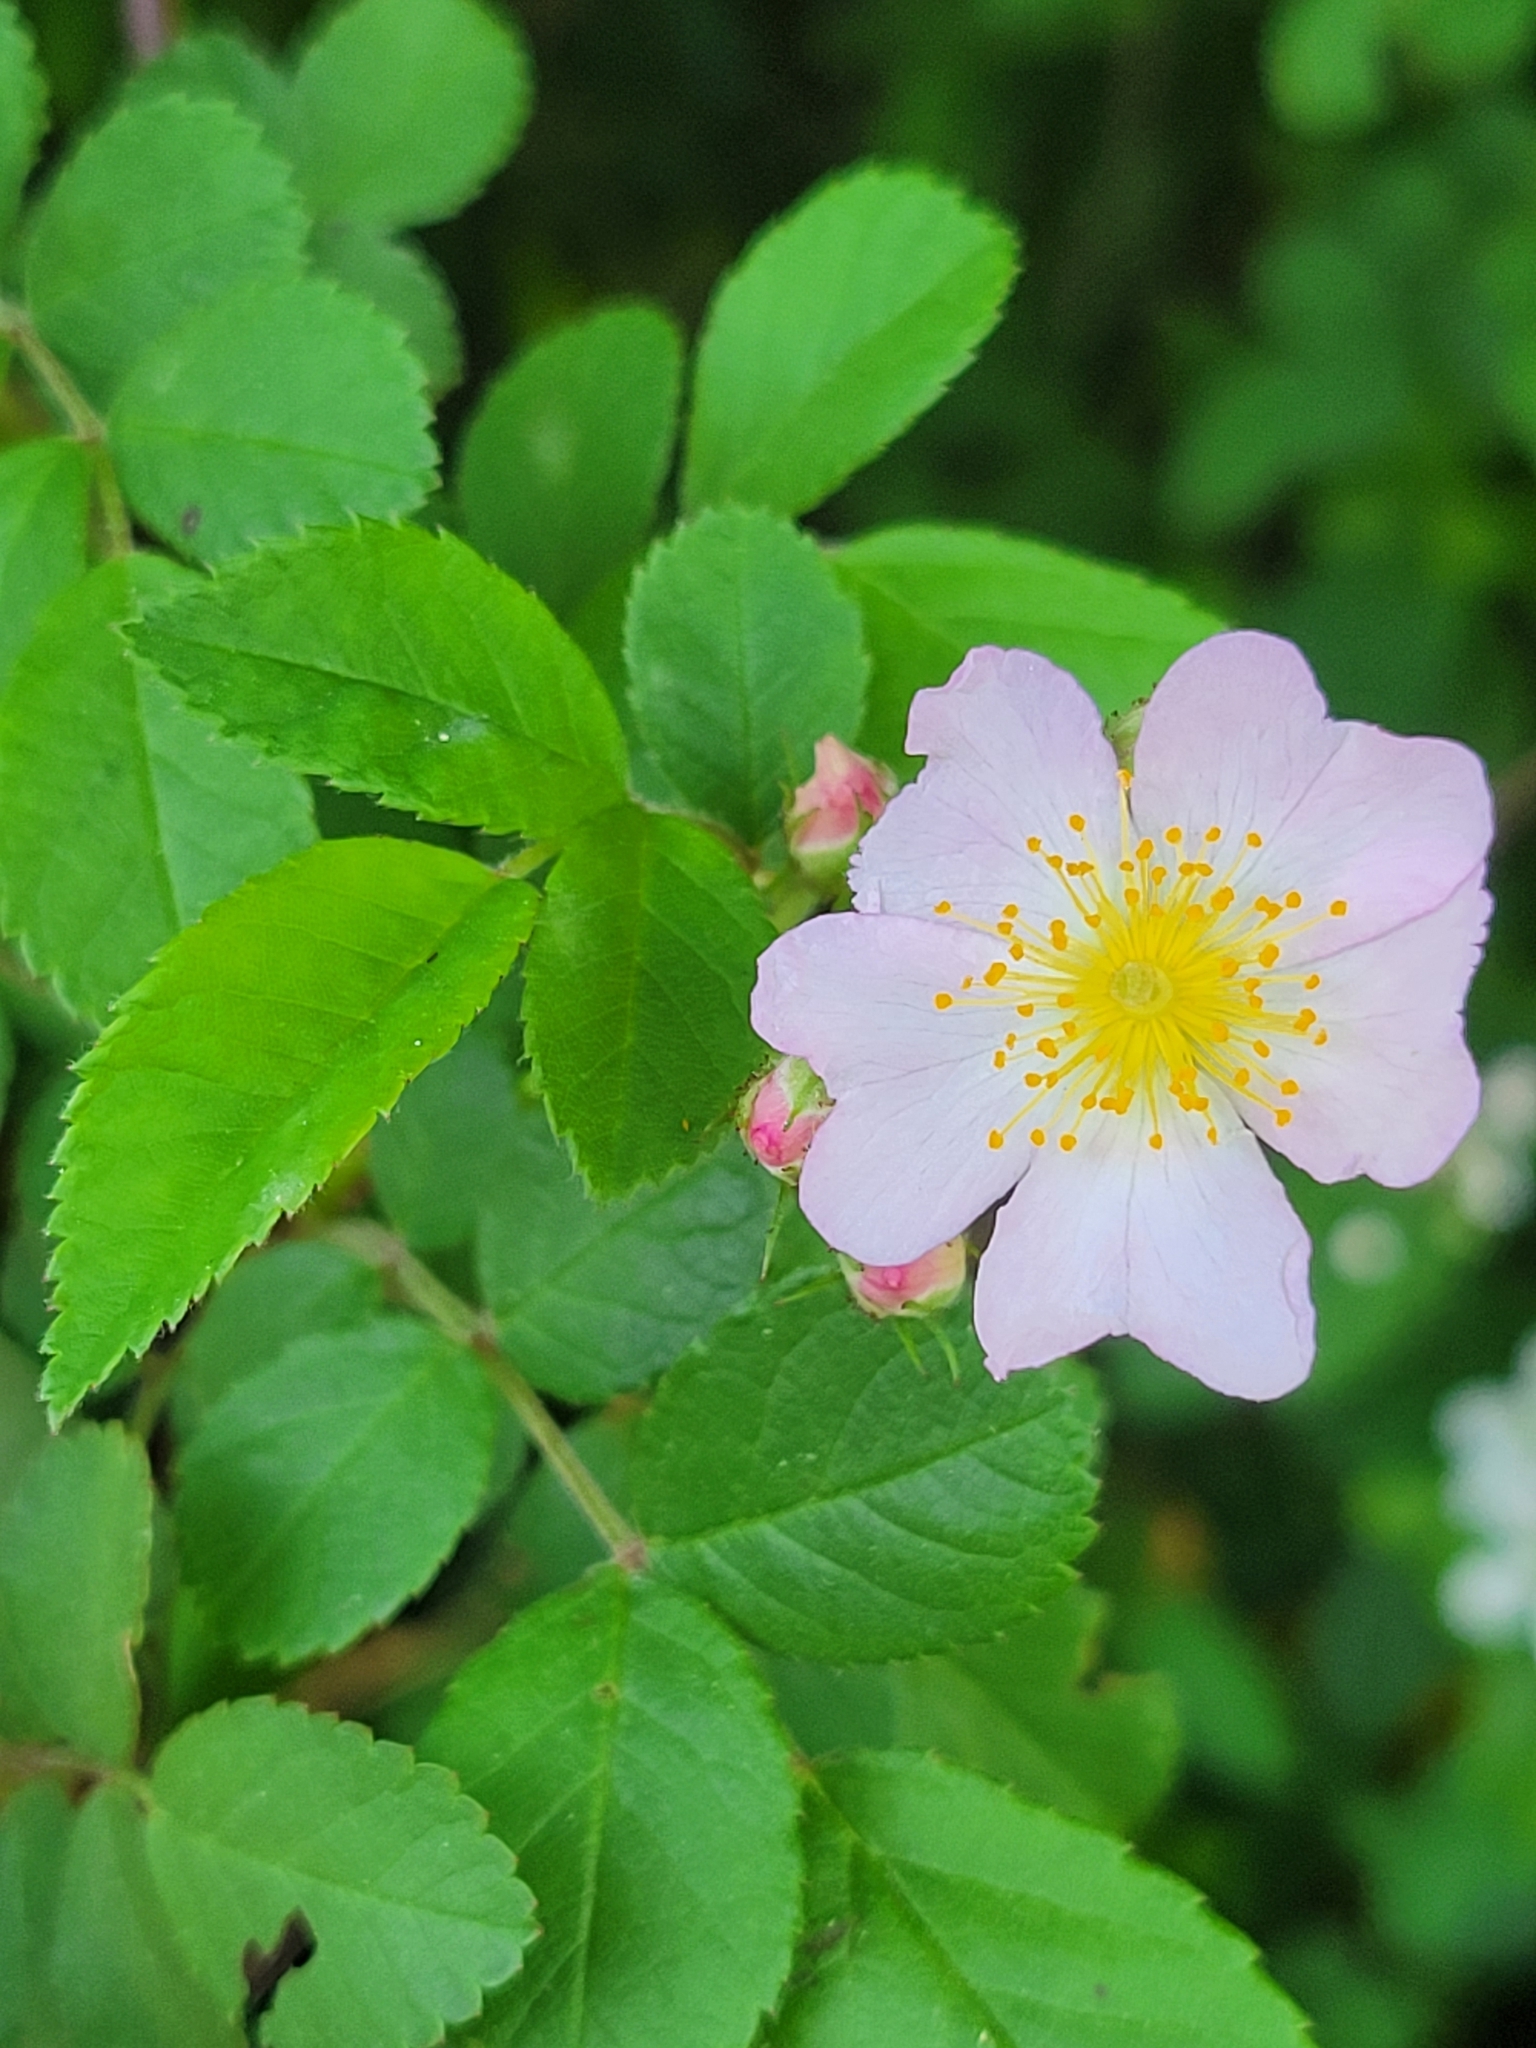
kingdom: Plantae
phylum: Tracheophyta
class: Magnoliopsida
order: Rosales
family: Rosaceae
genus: Rosa
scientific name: Rosa carolina
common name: Pasture rose
